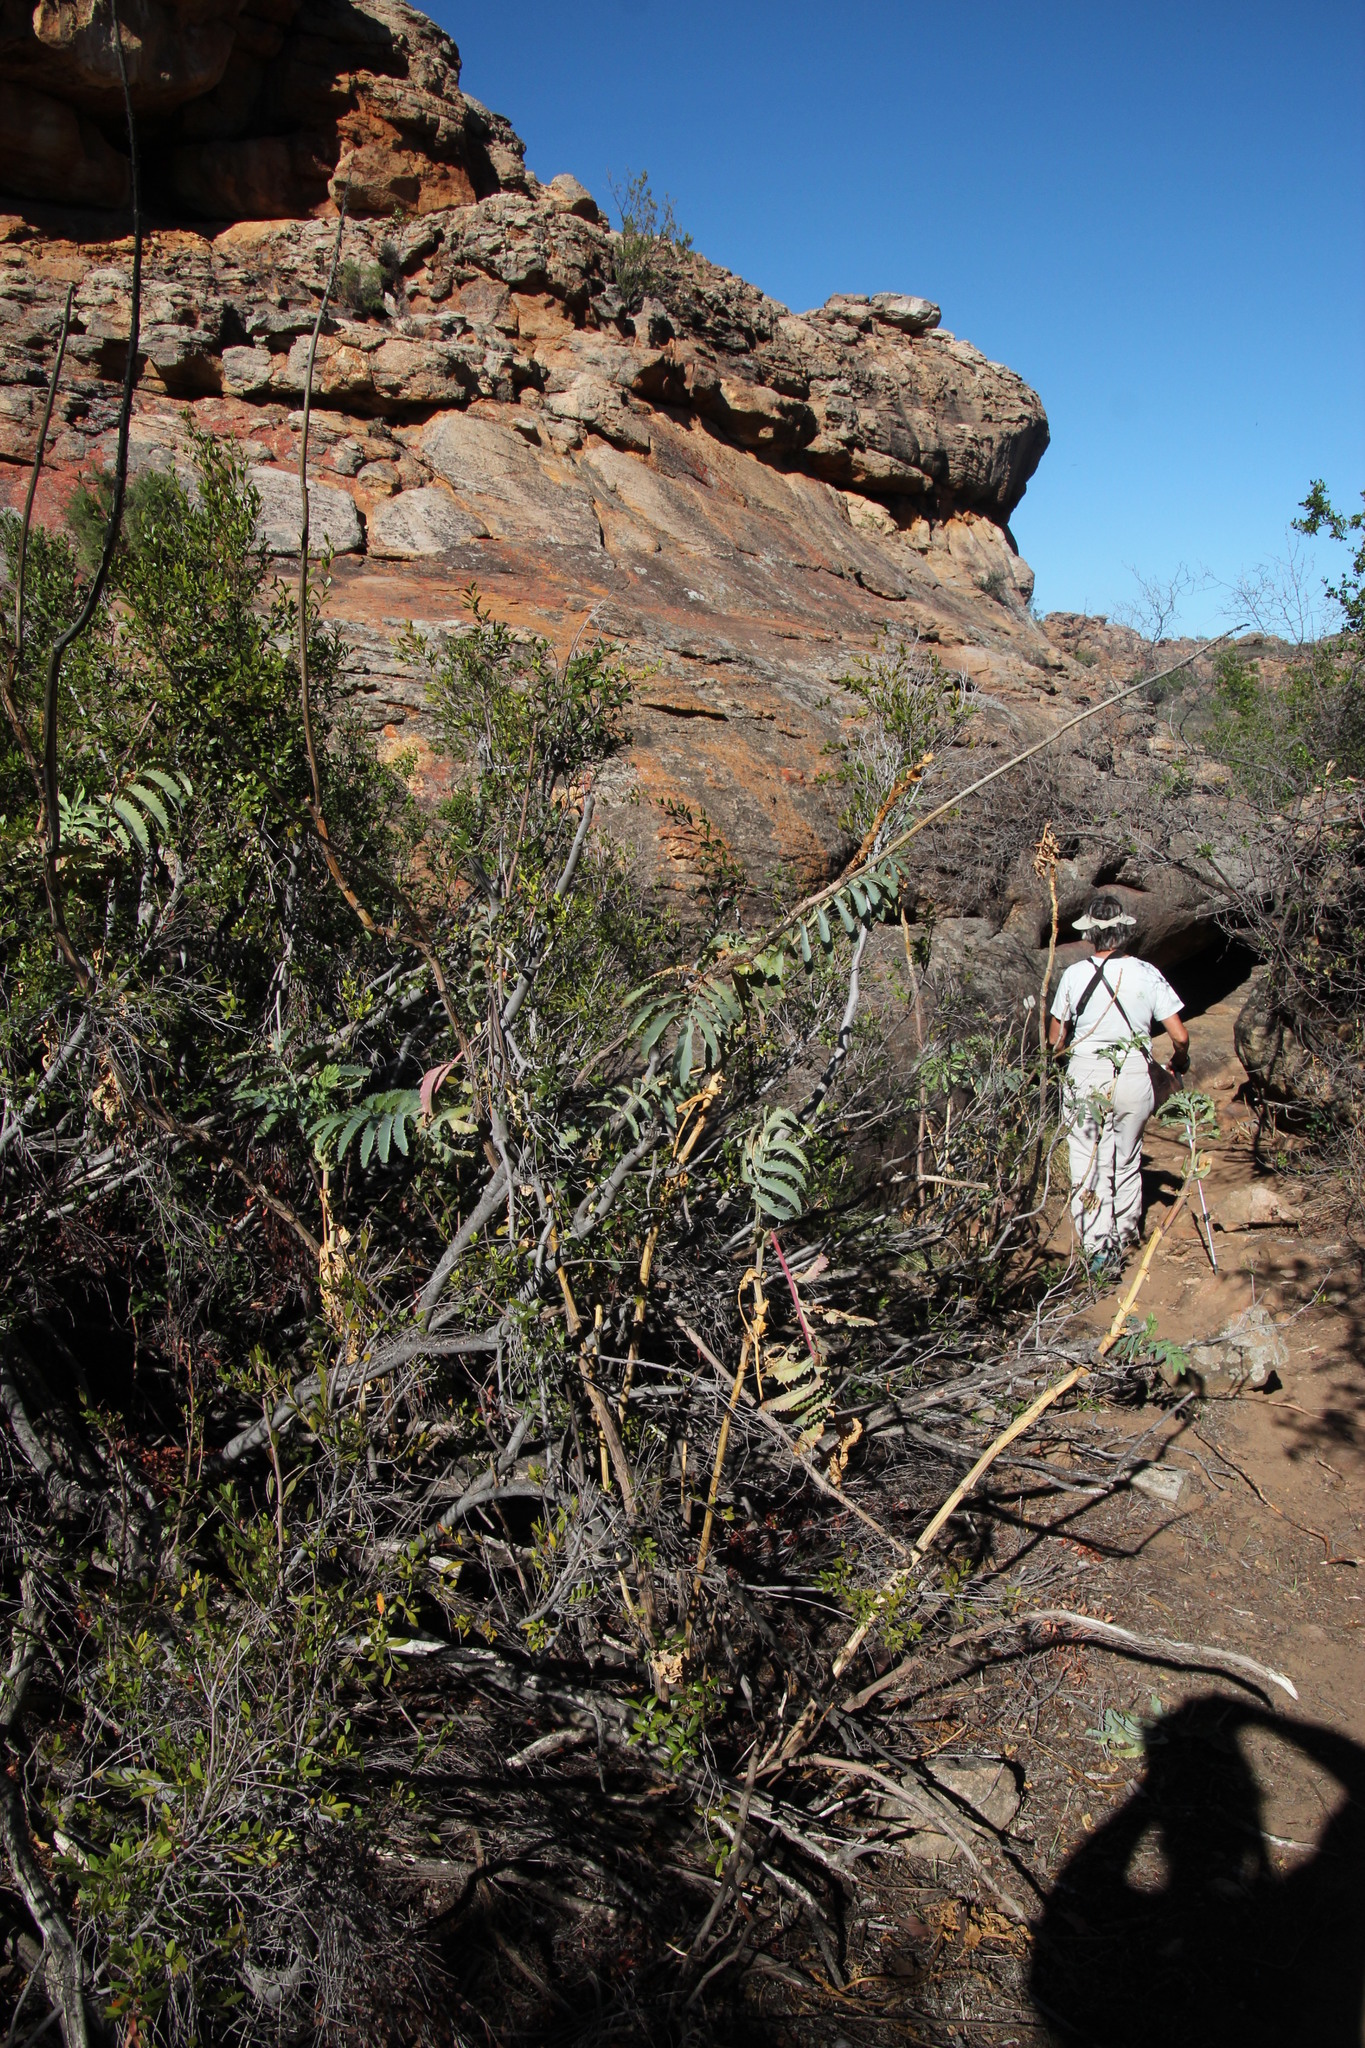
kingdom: Plantae
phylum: Tracheophyta
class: Magnoliopsida
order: Geraniales
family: Melianthaceae
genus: Melianthus
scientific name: Melianthus major
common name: Honey-flower
